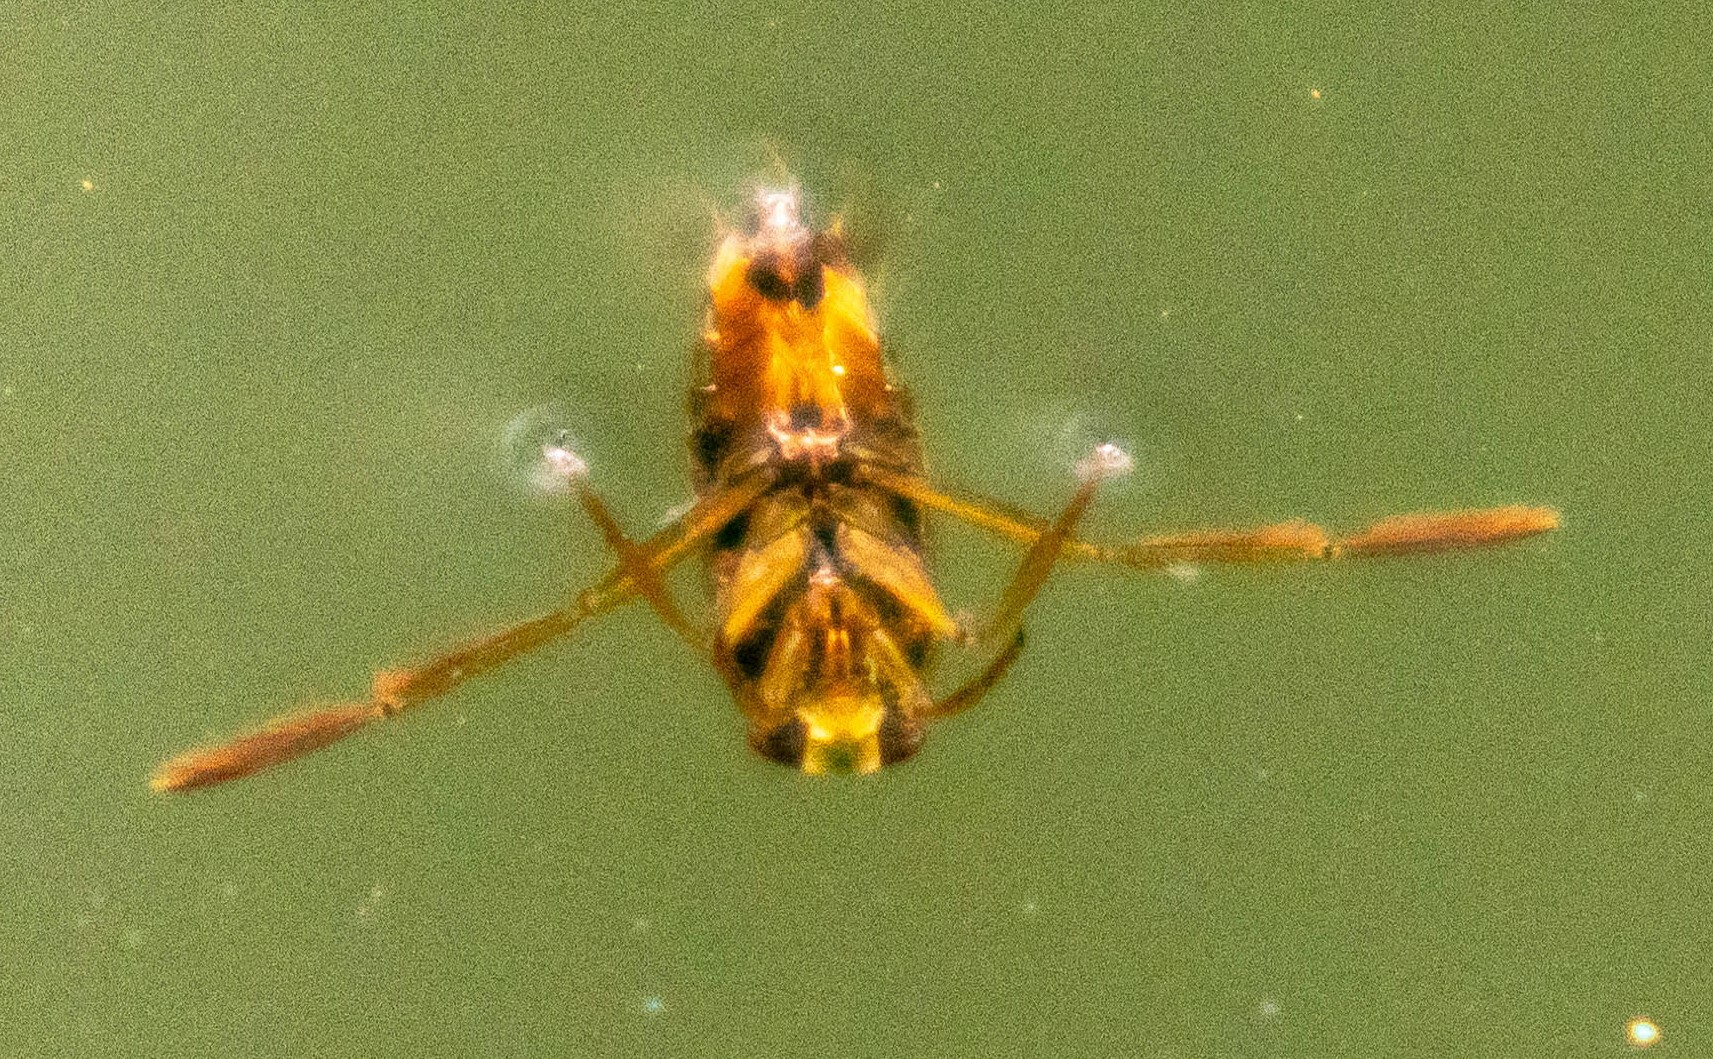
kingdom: Animalia
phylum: Arthropoda
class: Insecta
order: Hemiptera
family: Notonectidae
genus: Notonecta
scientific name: Notonecta
